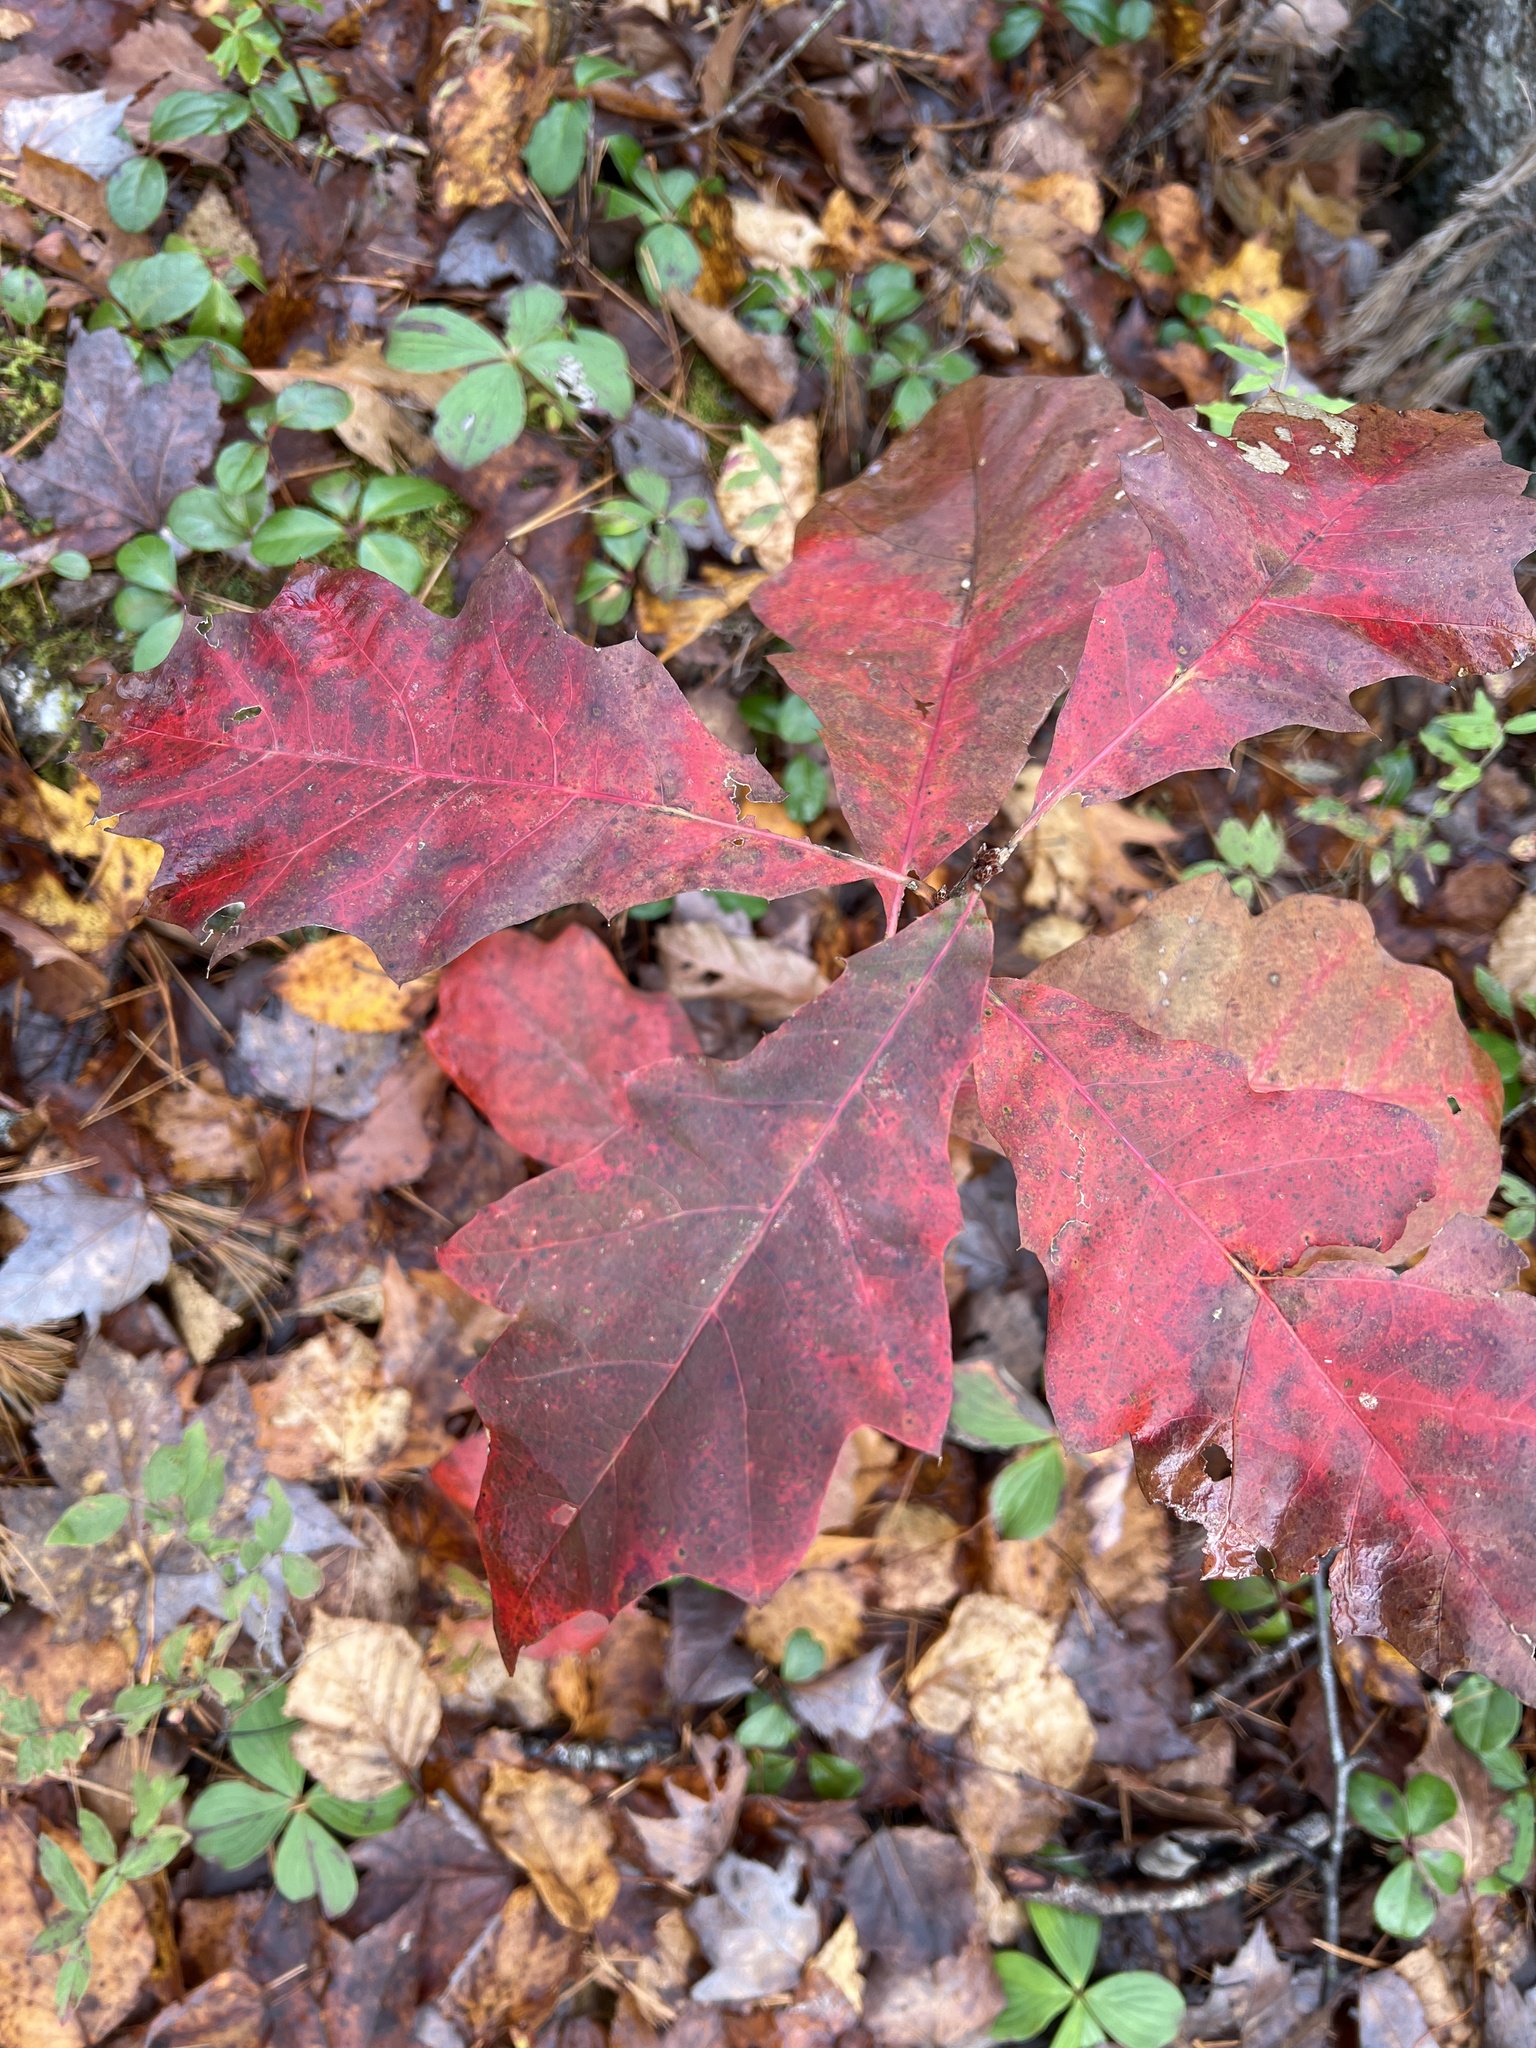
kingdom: Plantae
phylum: Tracheophyta
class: Magnoliopsida
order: Fagales
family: Fagaceae
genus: Quercus
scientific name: Quercus rubra
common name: Red oak
